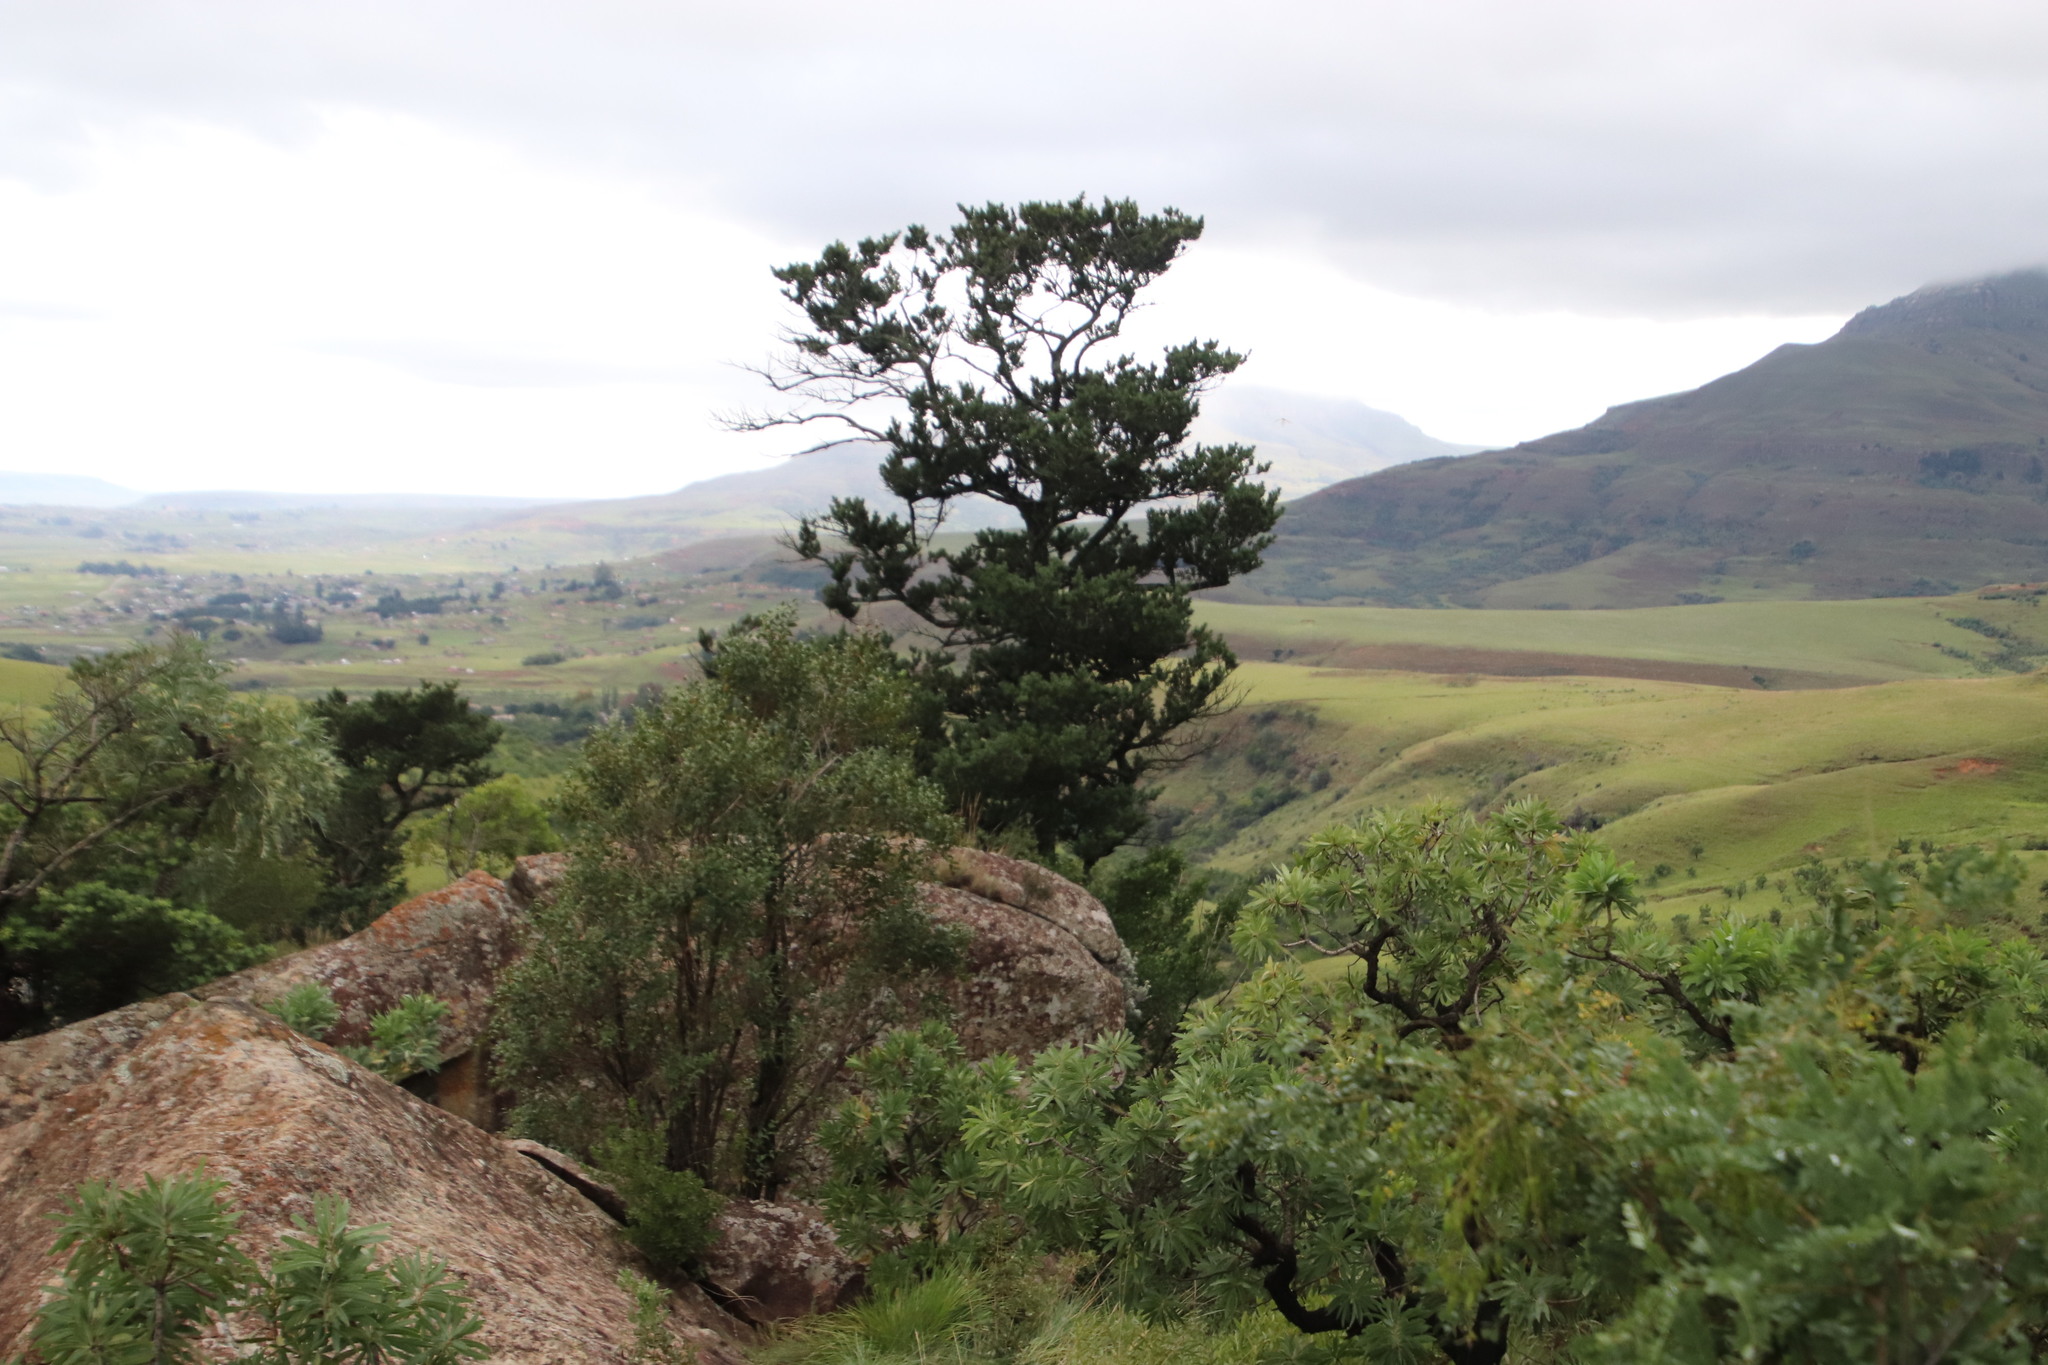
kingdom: Plantae
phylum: Tracheophyta
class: Pinopsida
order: Pinales
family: Podocarpaceae
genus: Podocarpus
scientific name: Podocarpus latifolius
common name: True yellowwood
